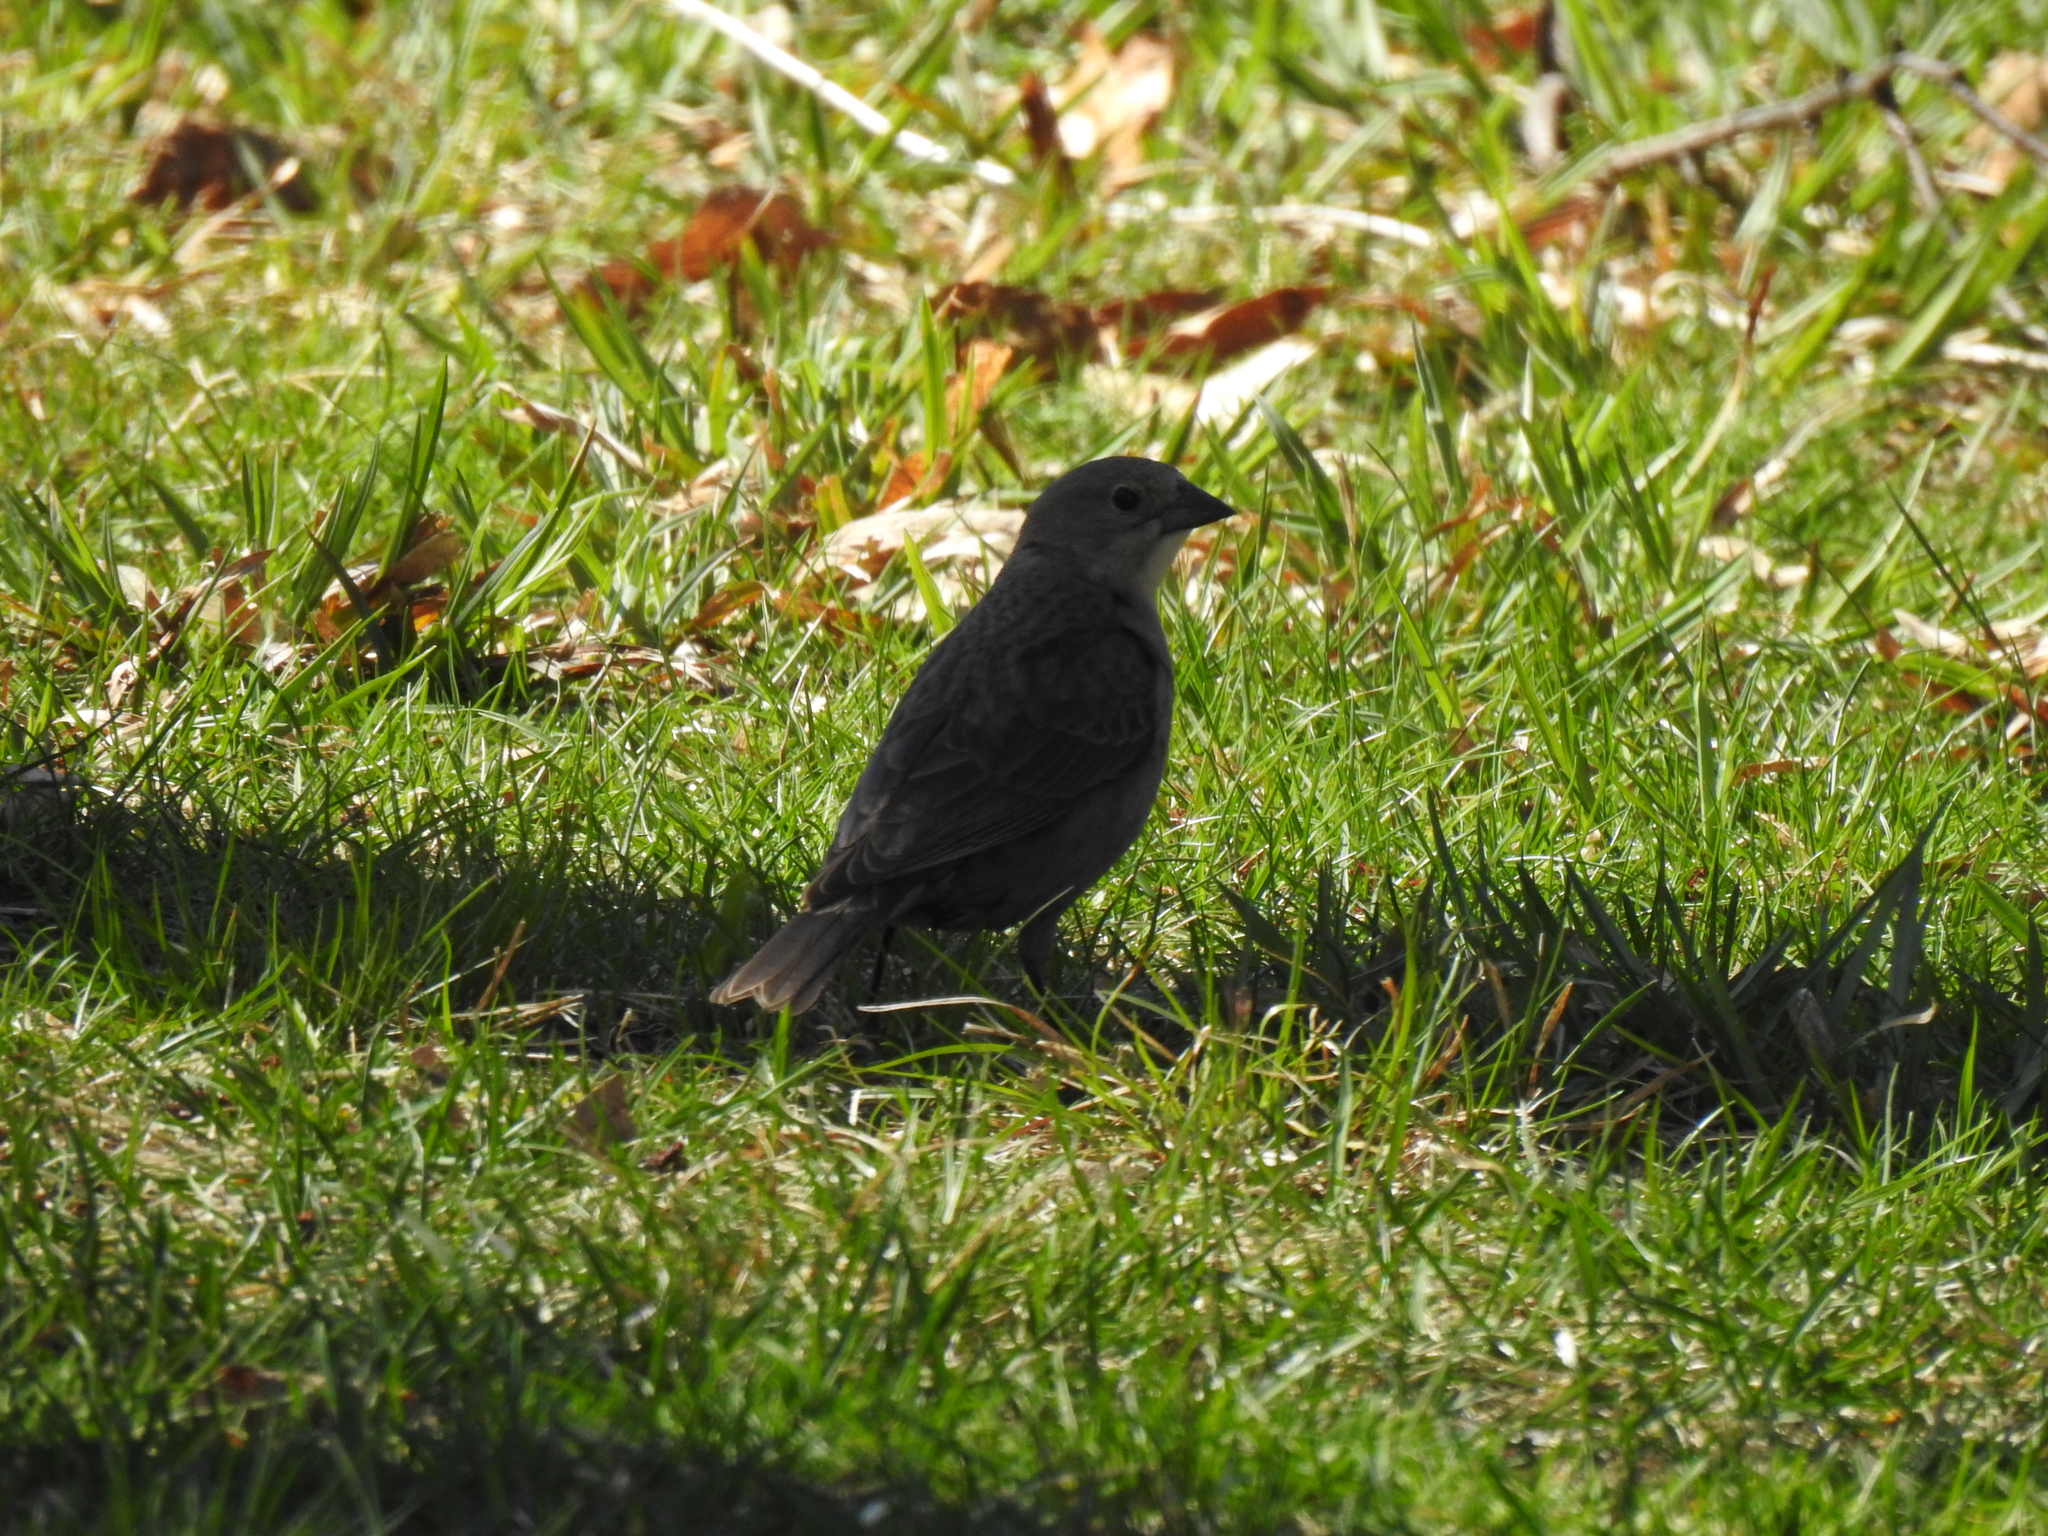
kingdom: Animalia
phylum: Chordata
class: Aves
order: Passeriformes
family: Icteridae
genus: Molothrus
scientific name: Molothrus ater
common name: Brown-headed cowbird
